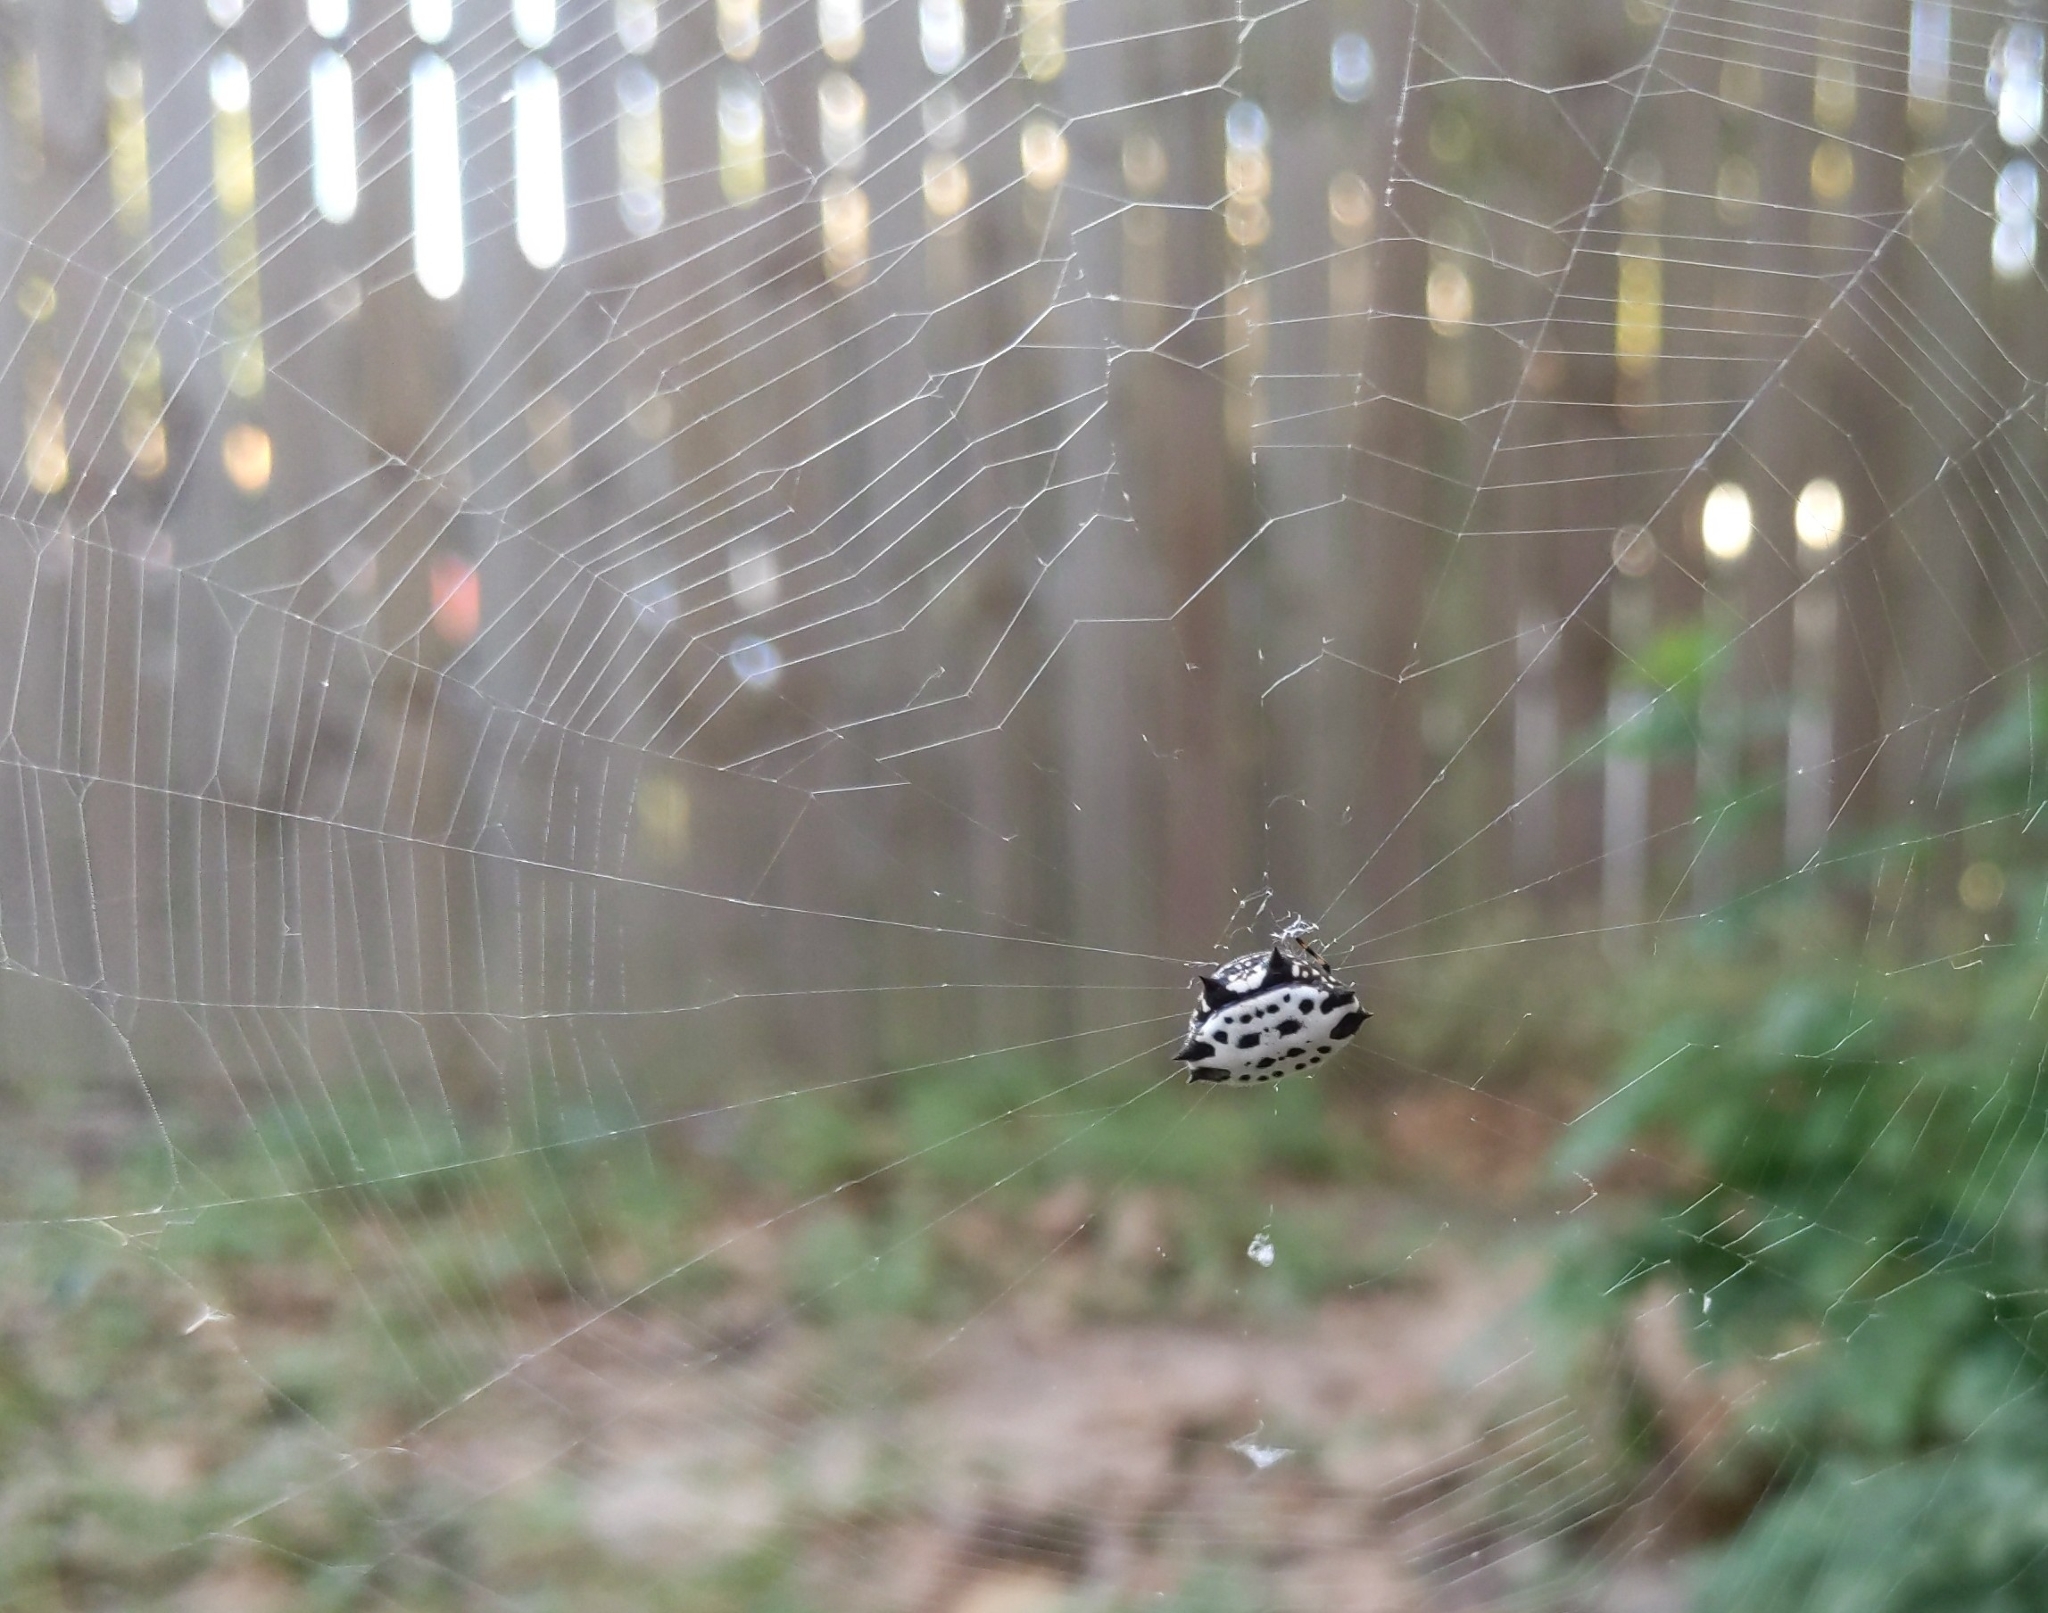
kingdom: Animalia
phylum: Arthropoda
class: Arachnida
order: Araneae
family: Araneidae
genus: Gasteracantha
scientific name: Gasteracantha cancriformis
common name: Orb weavers
